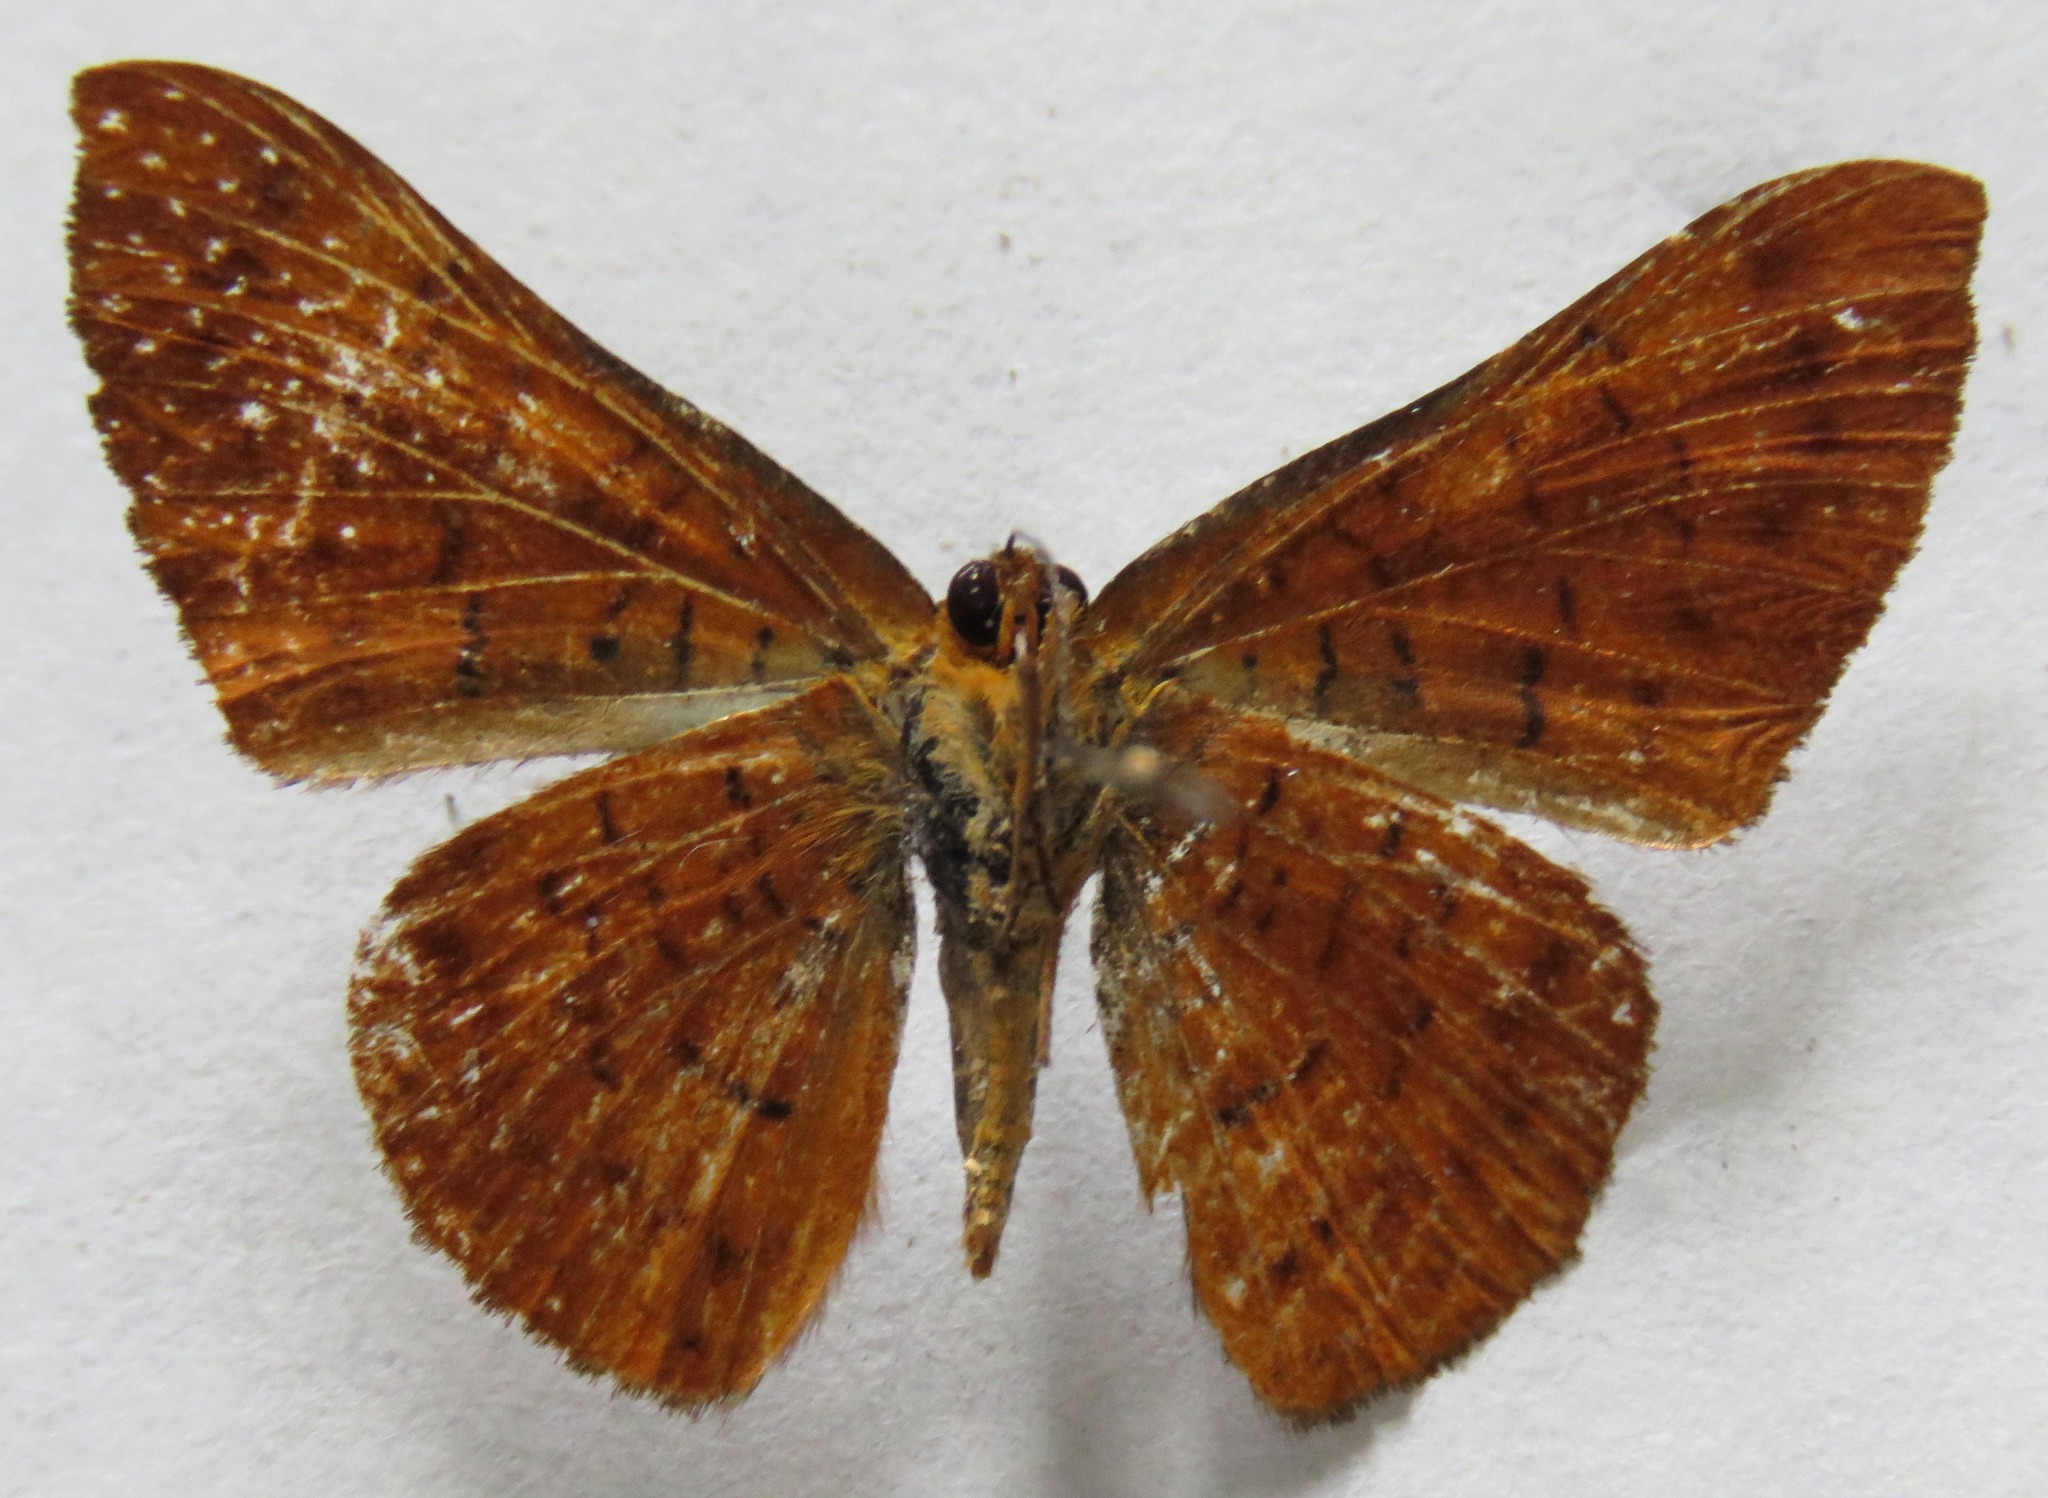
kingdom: Animalia
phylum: Arthropoda
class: Insecta
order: Lepidoptera
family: Lycaenidae
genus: Emesis
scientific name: Emesis tenedia
